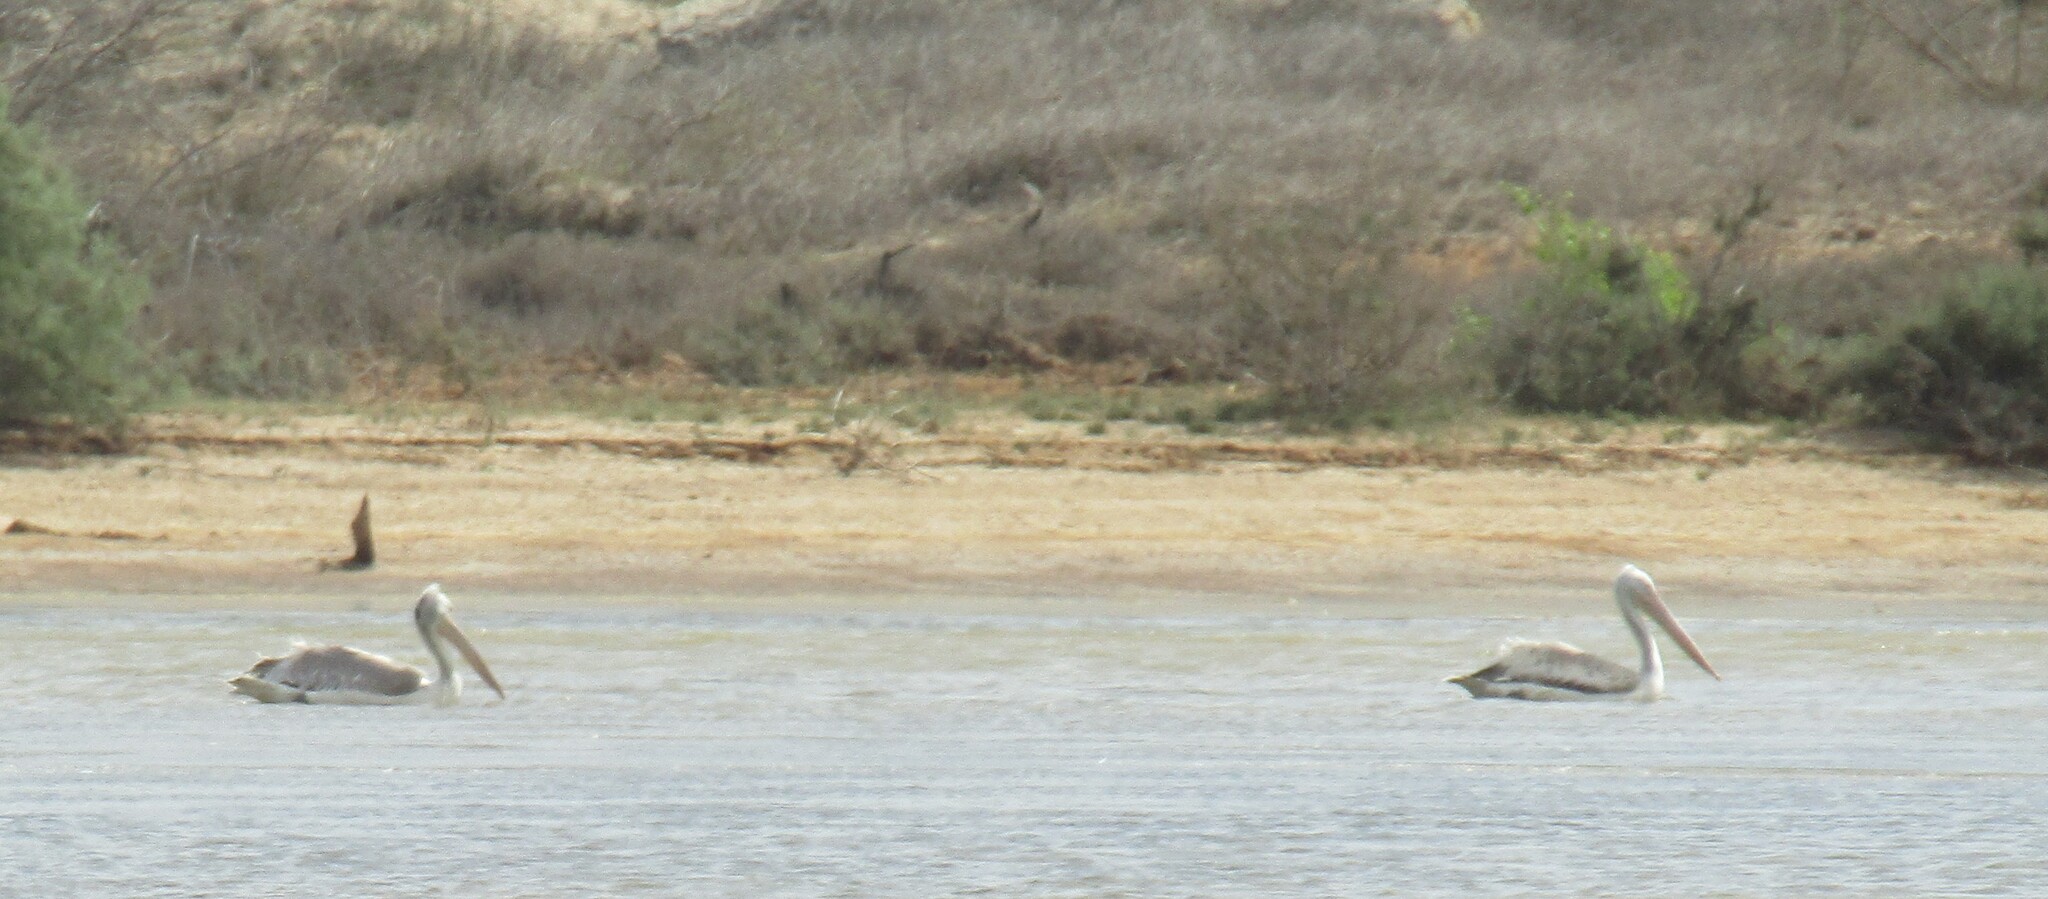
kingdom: Animalia
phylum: Chordata
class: Aves
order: Pelecaniformes
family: Pelecanidae
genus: Pelecanus
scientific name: Pelecanus crispus
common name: Dalmatian pelican
